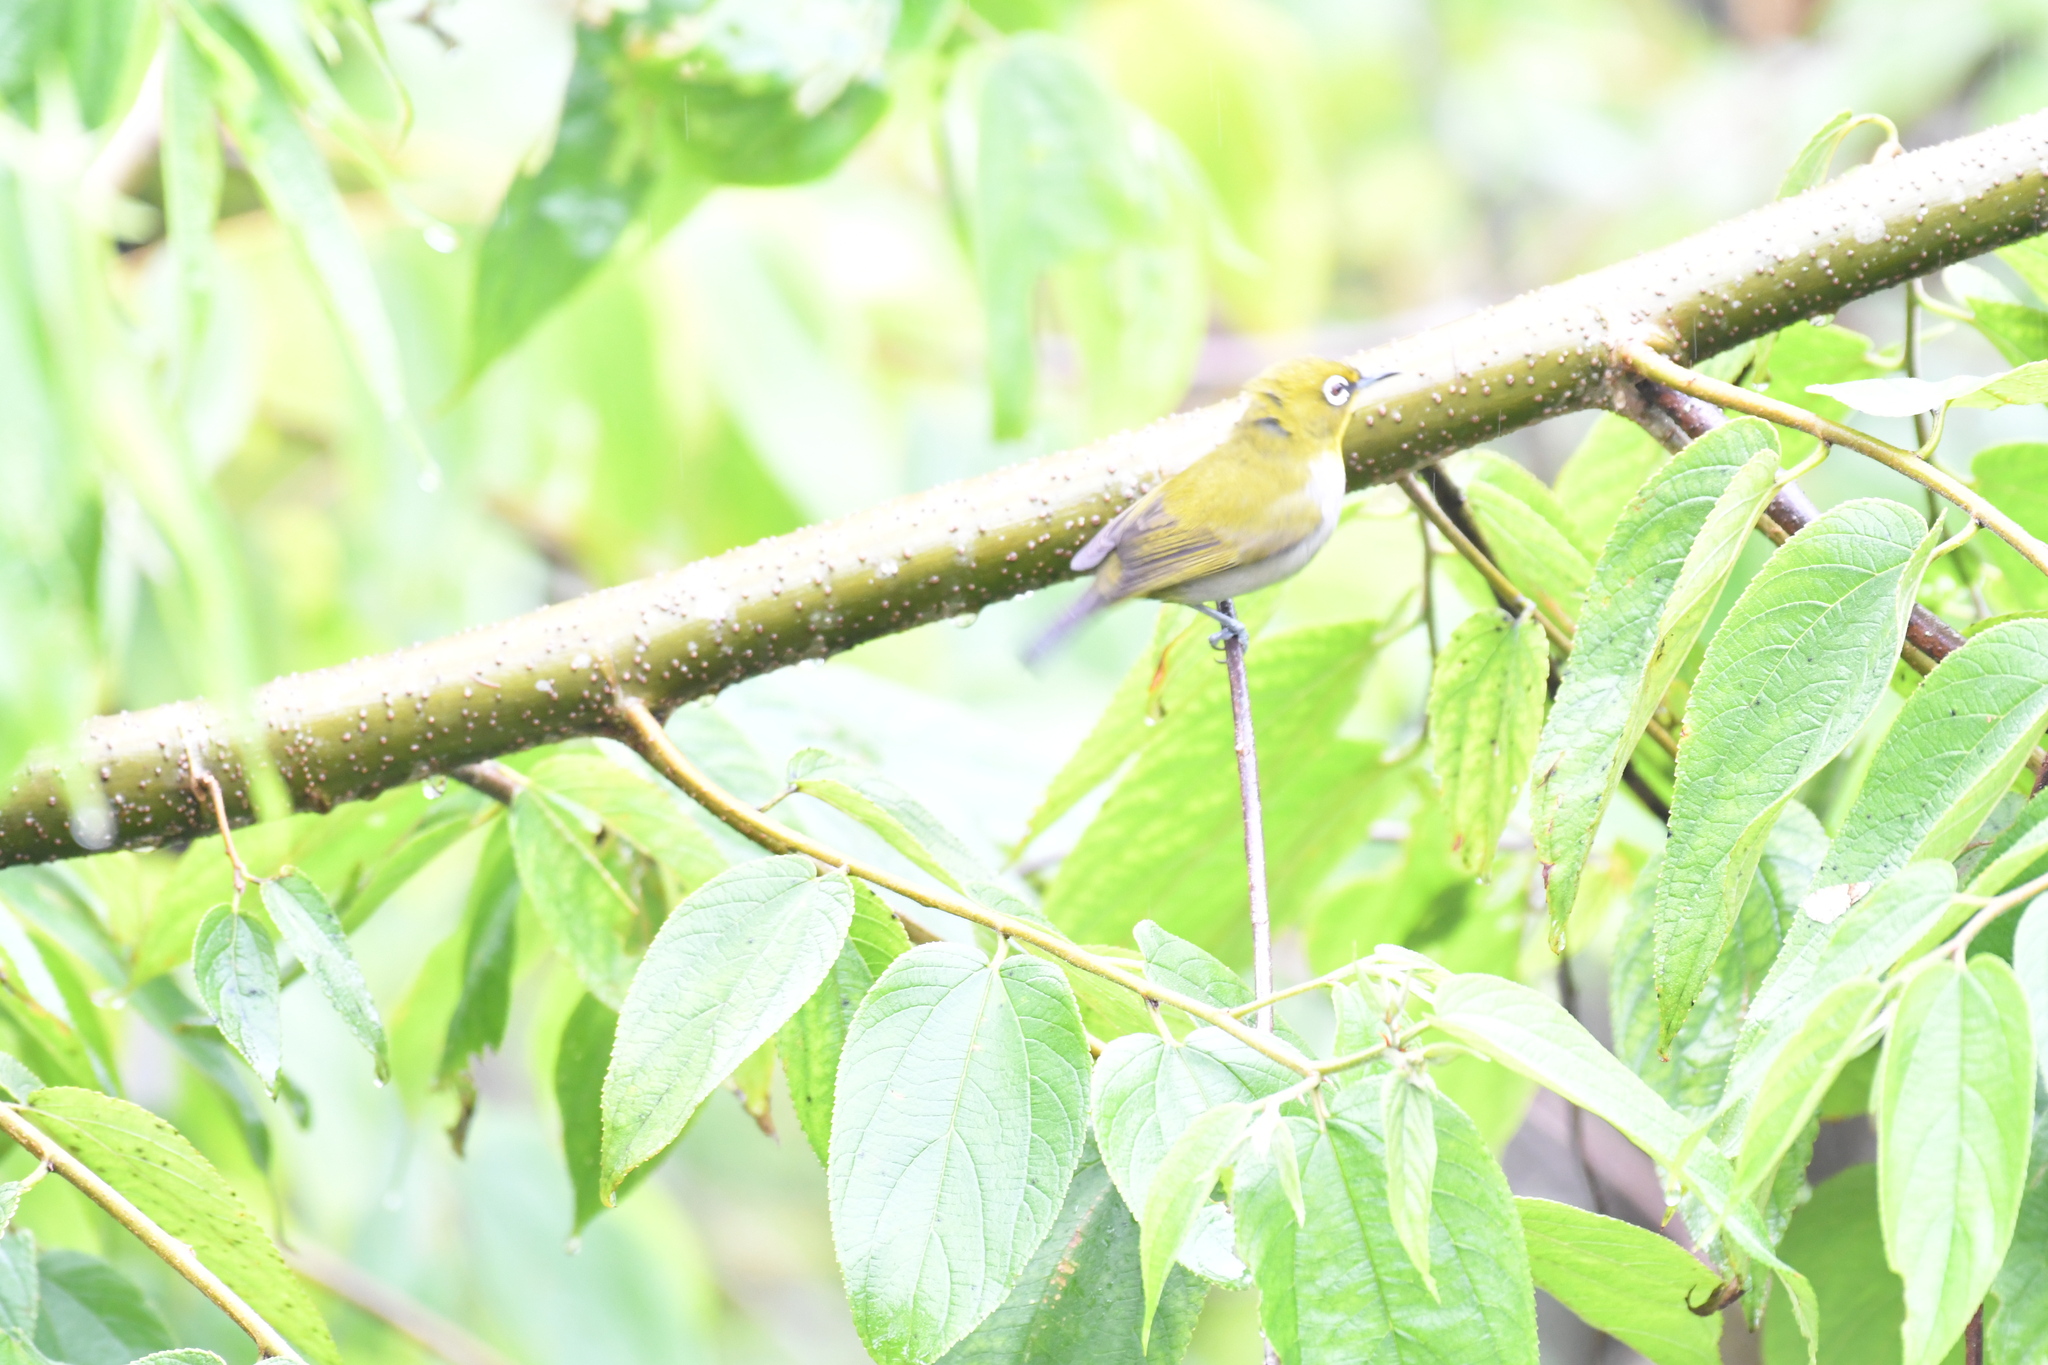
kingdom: Animalia
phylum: Chordata
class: Aves
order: Passeriformes
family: Zosteropidae
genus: Zosterops
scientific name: Zosterops maderaspatanus
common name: Madagascar white-eye
